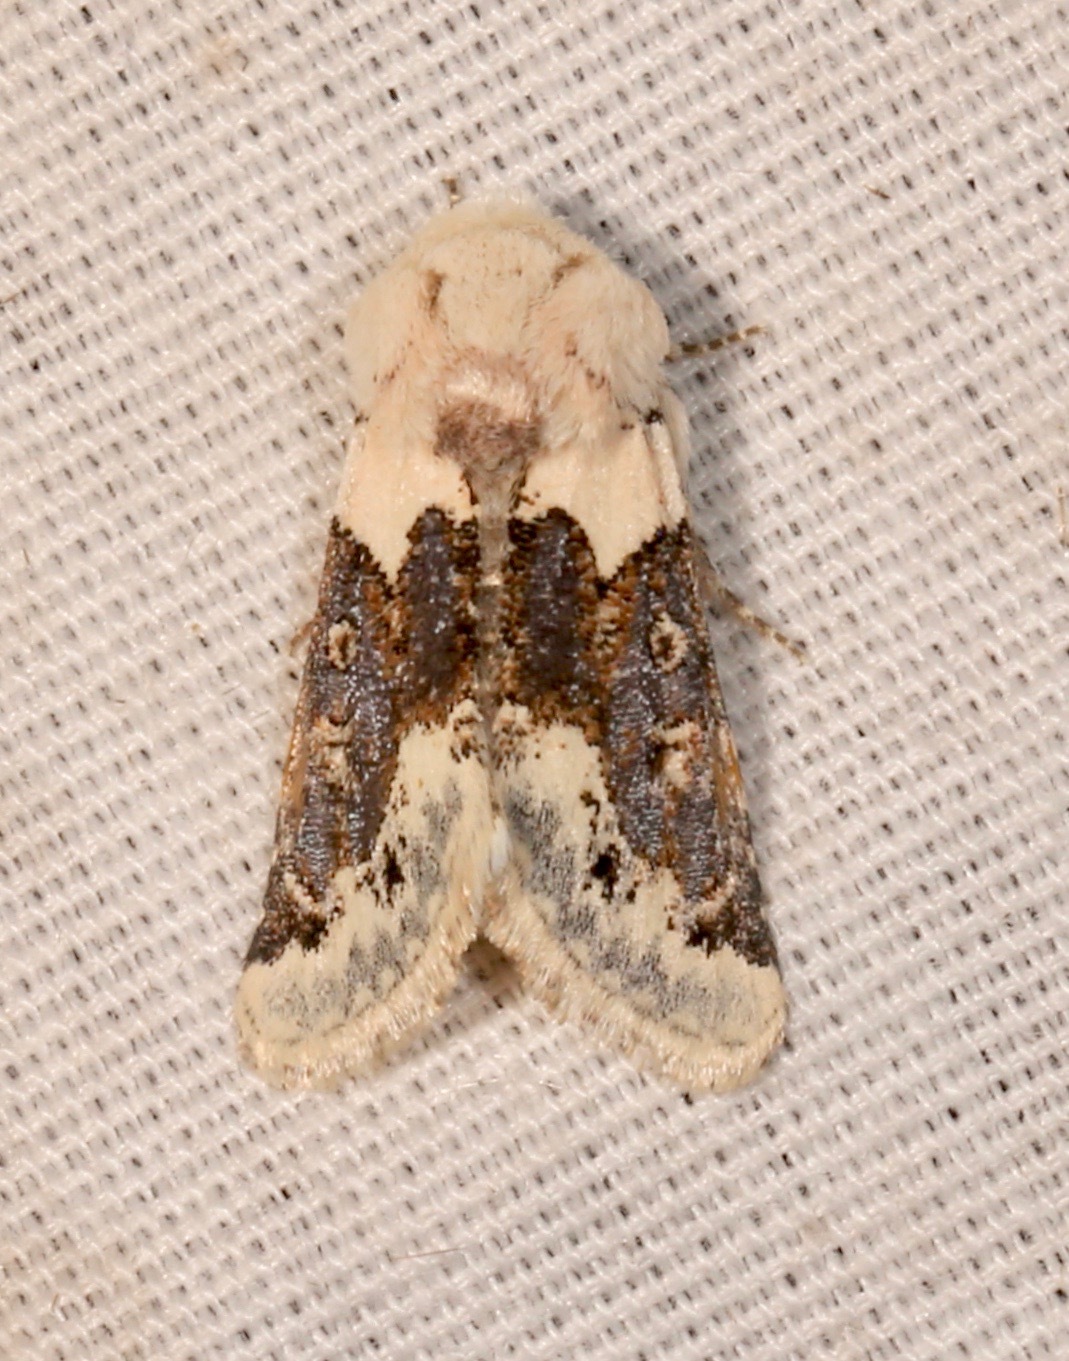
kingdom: Animalia
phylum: Arthropoda
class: Insecta
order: Lepidoptera
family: Noctuidae
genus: Triocnemis
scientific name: Triocnemis saporis
